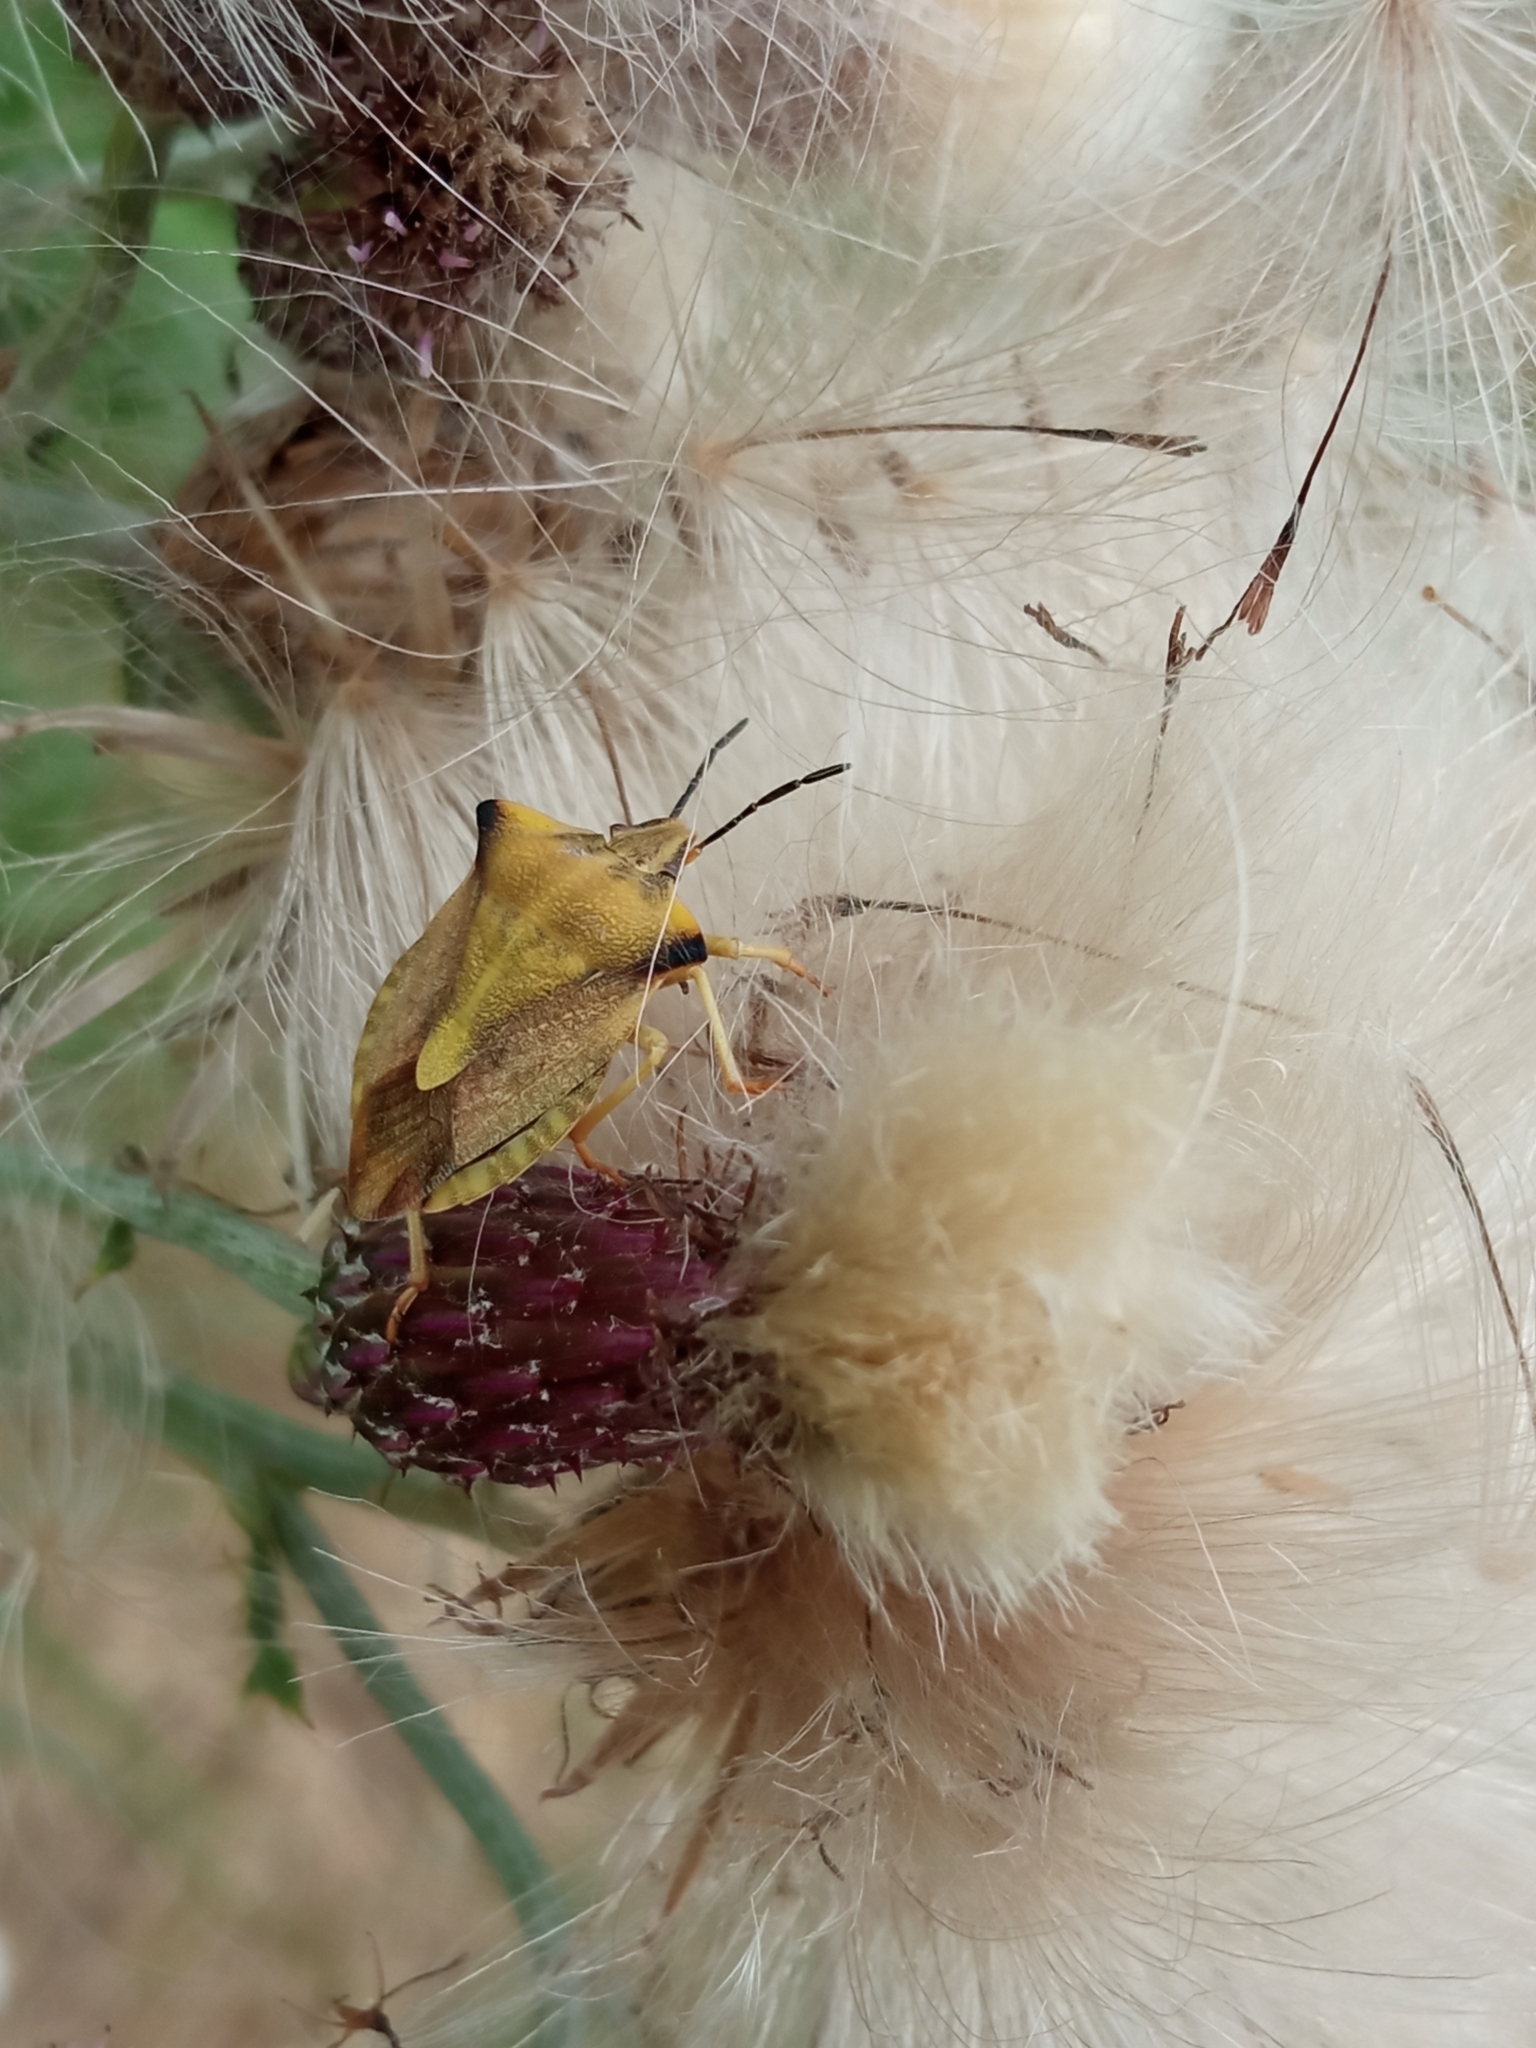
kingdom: Animalia
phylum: Arthropoda
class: Insecta
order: Hemiptera
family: Pentatomidae
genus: Carpocoris
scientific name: Carpocoris fuscispinus
